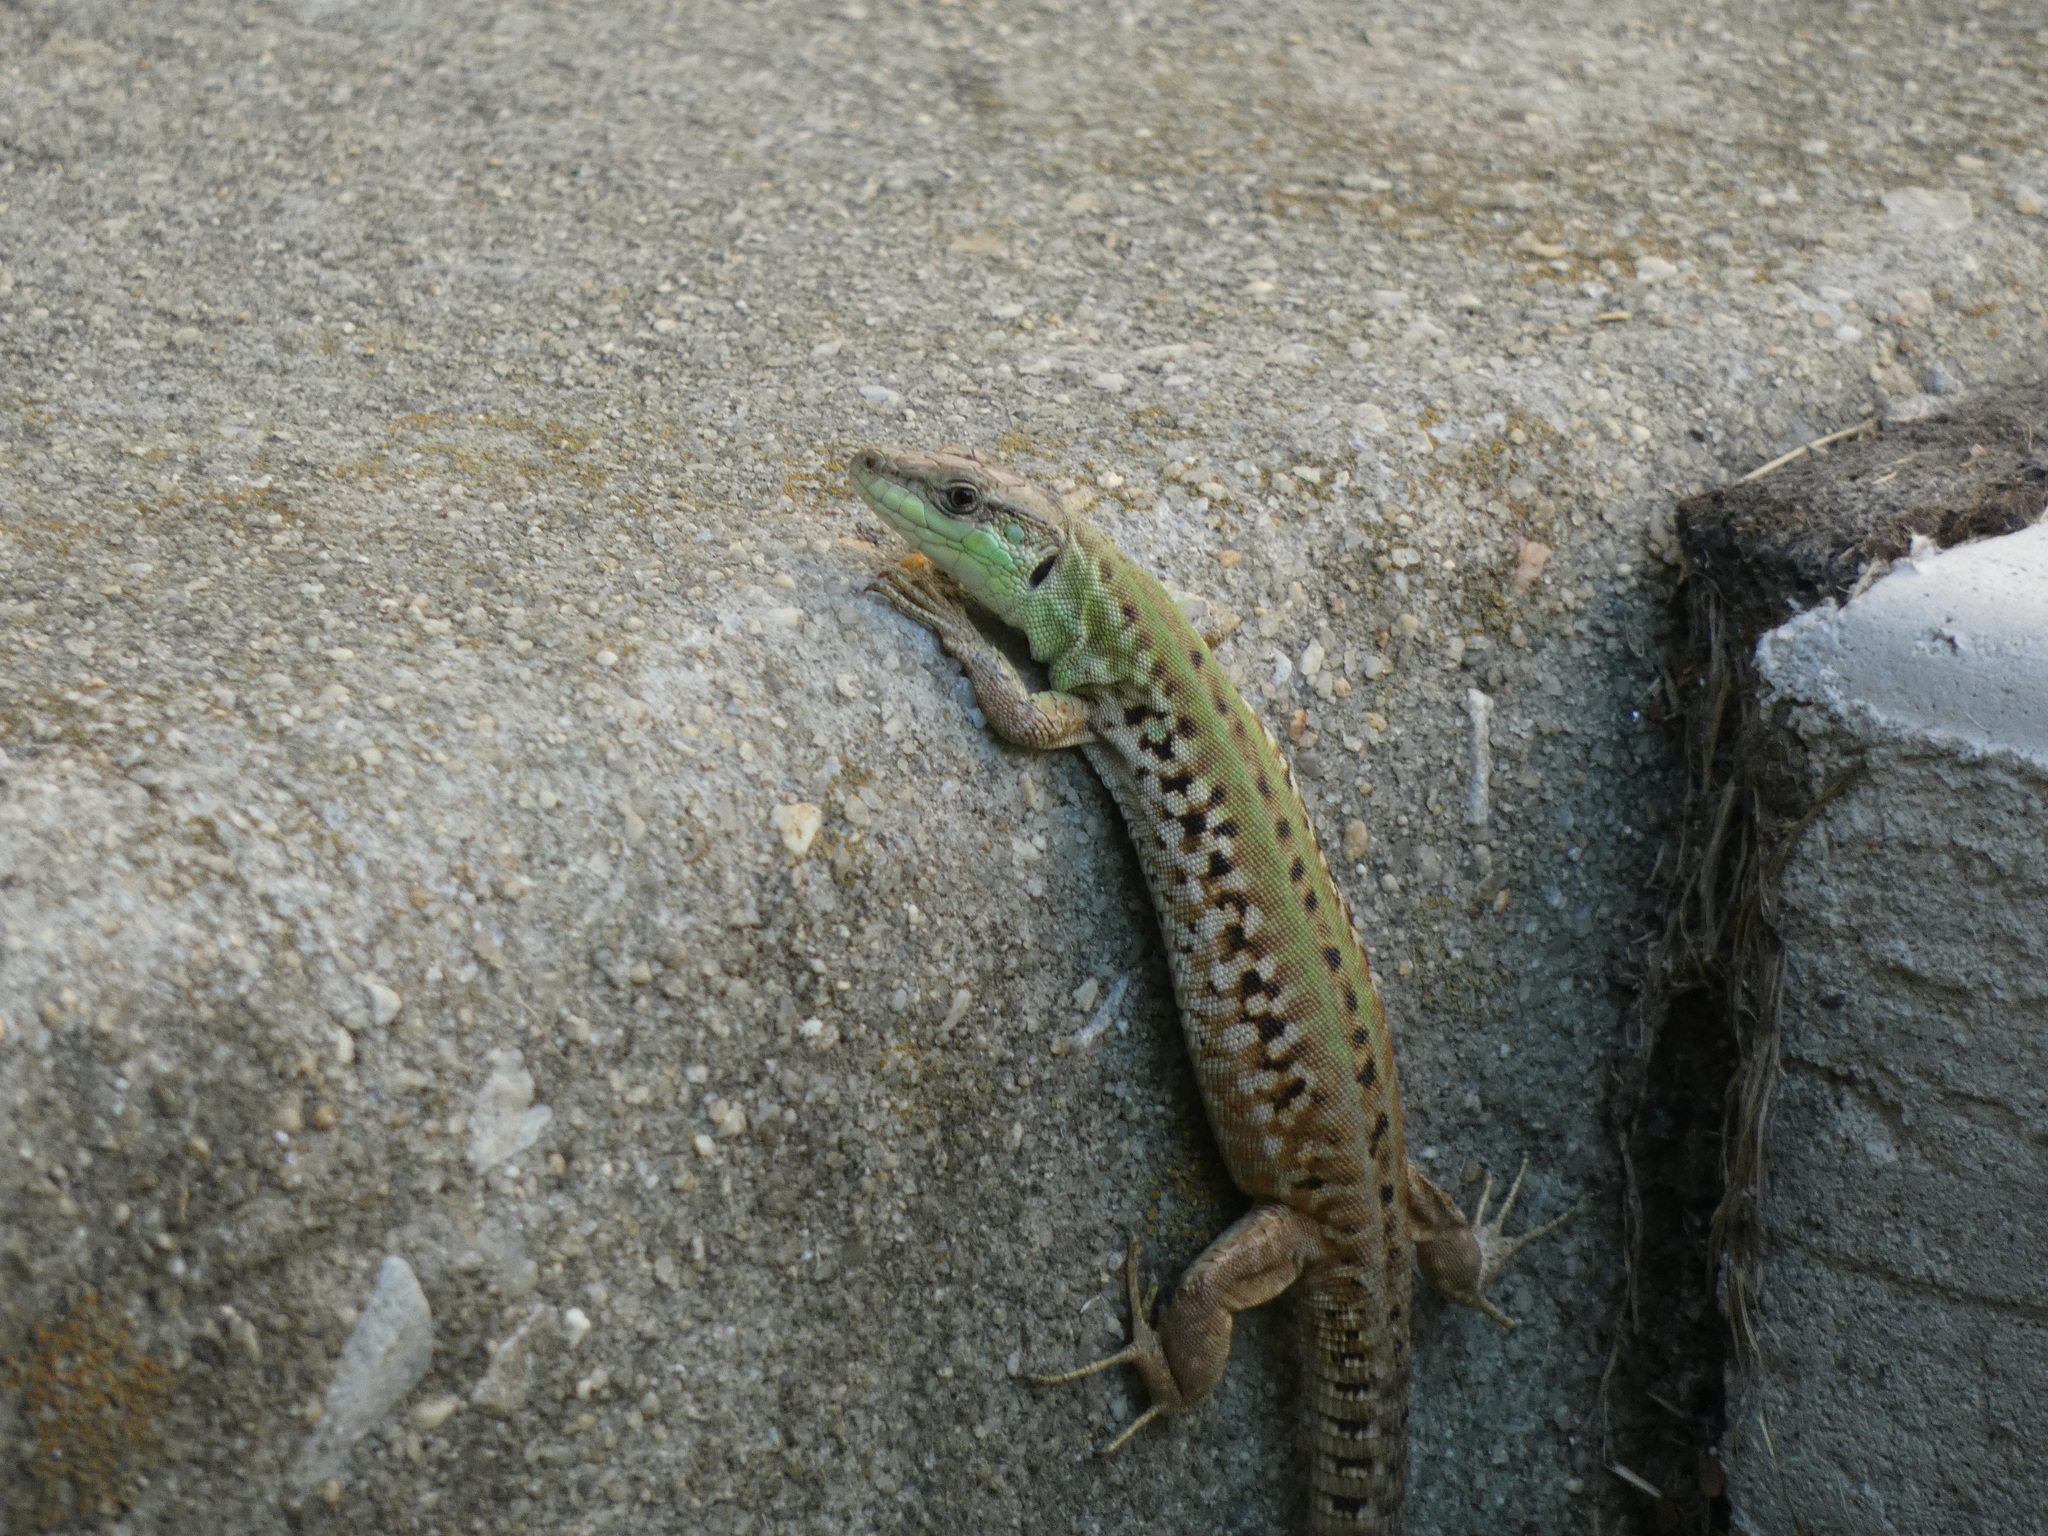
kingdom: Animalia
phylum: Chordata
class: Squamata
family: Lacertidae
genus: Podarcis
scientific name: Podarcis siculus
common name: Italian wall lizard
